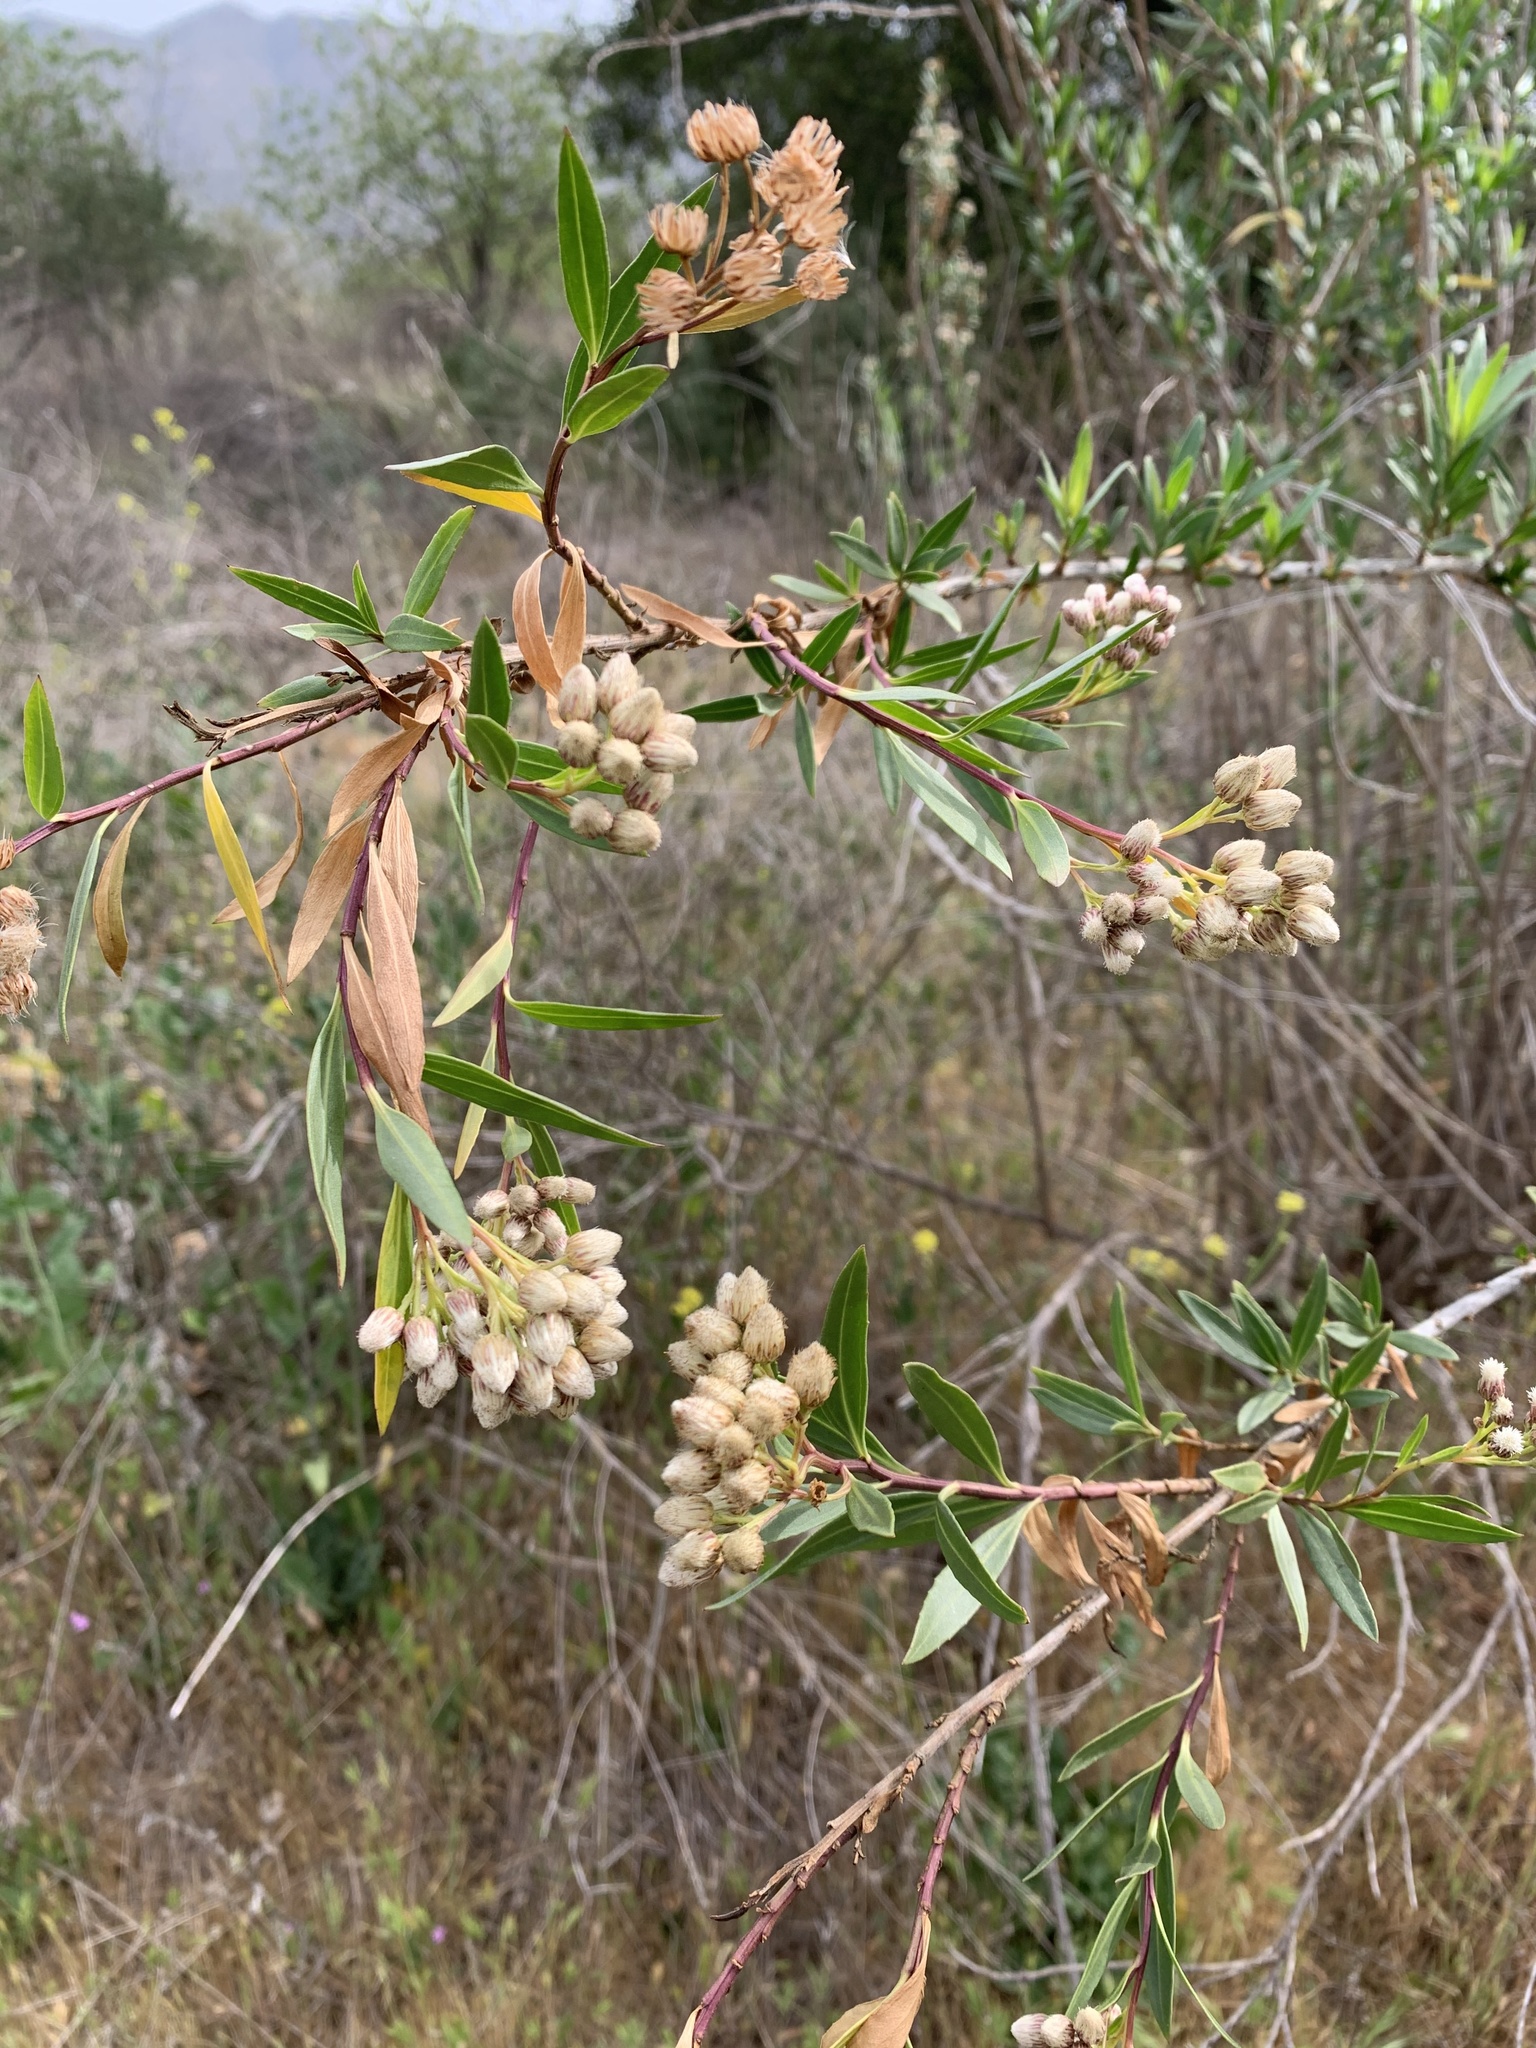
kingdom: Plantae
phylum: Tracheophyta
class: Magnoliopsida
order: Asterales
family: Asteraceae
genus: Baccharis
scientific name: Baccharis salicifolia
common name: Sticky baccharis
